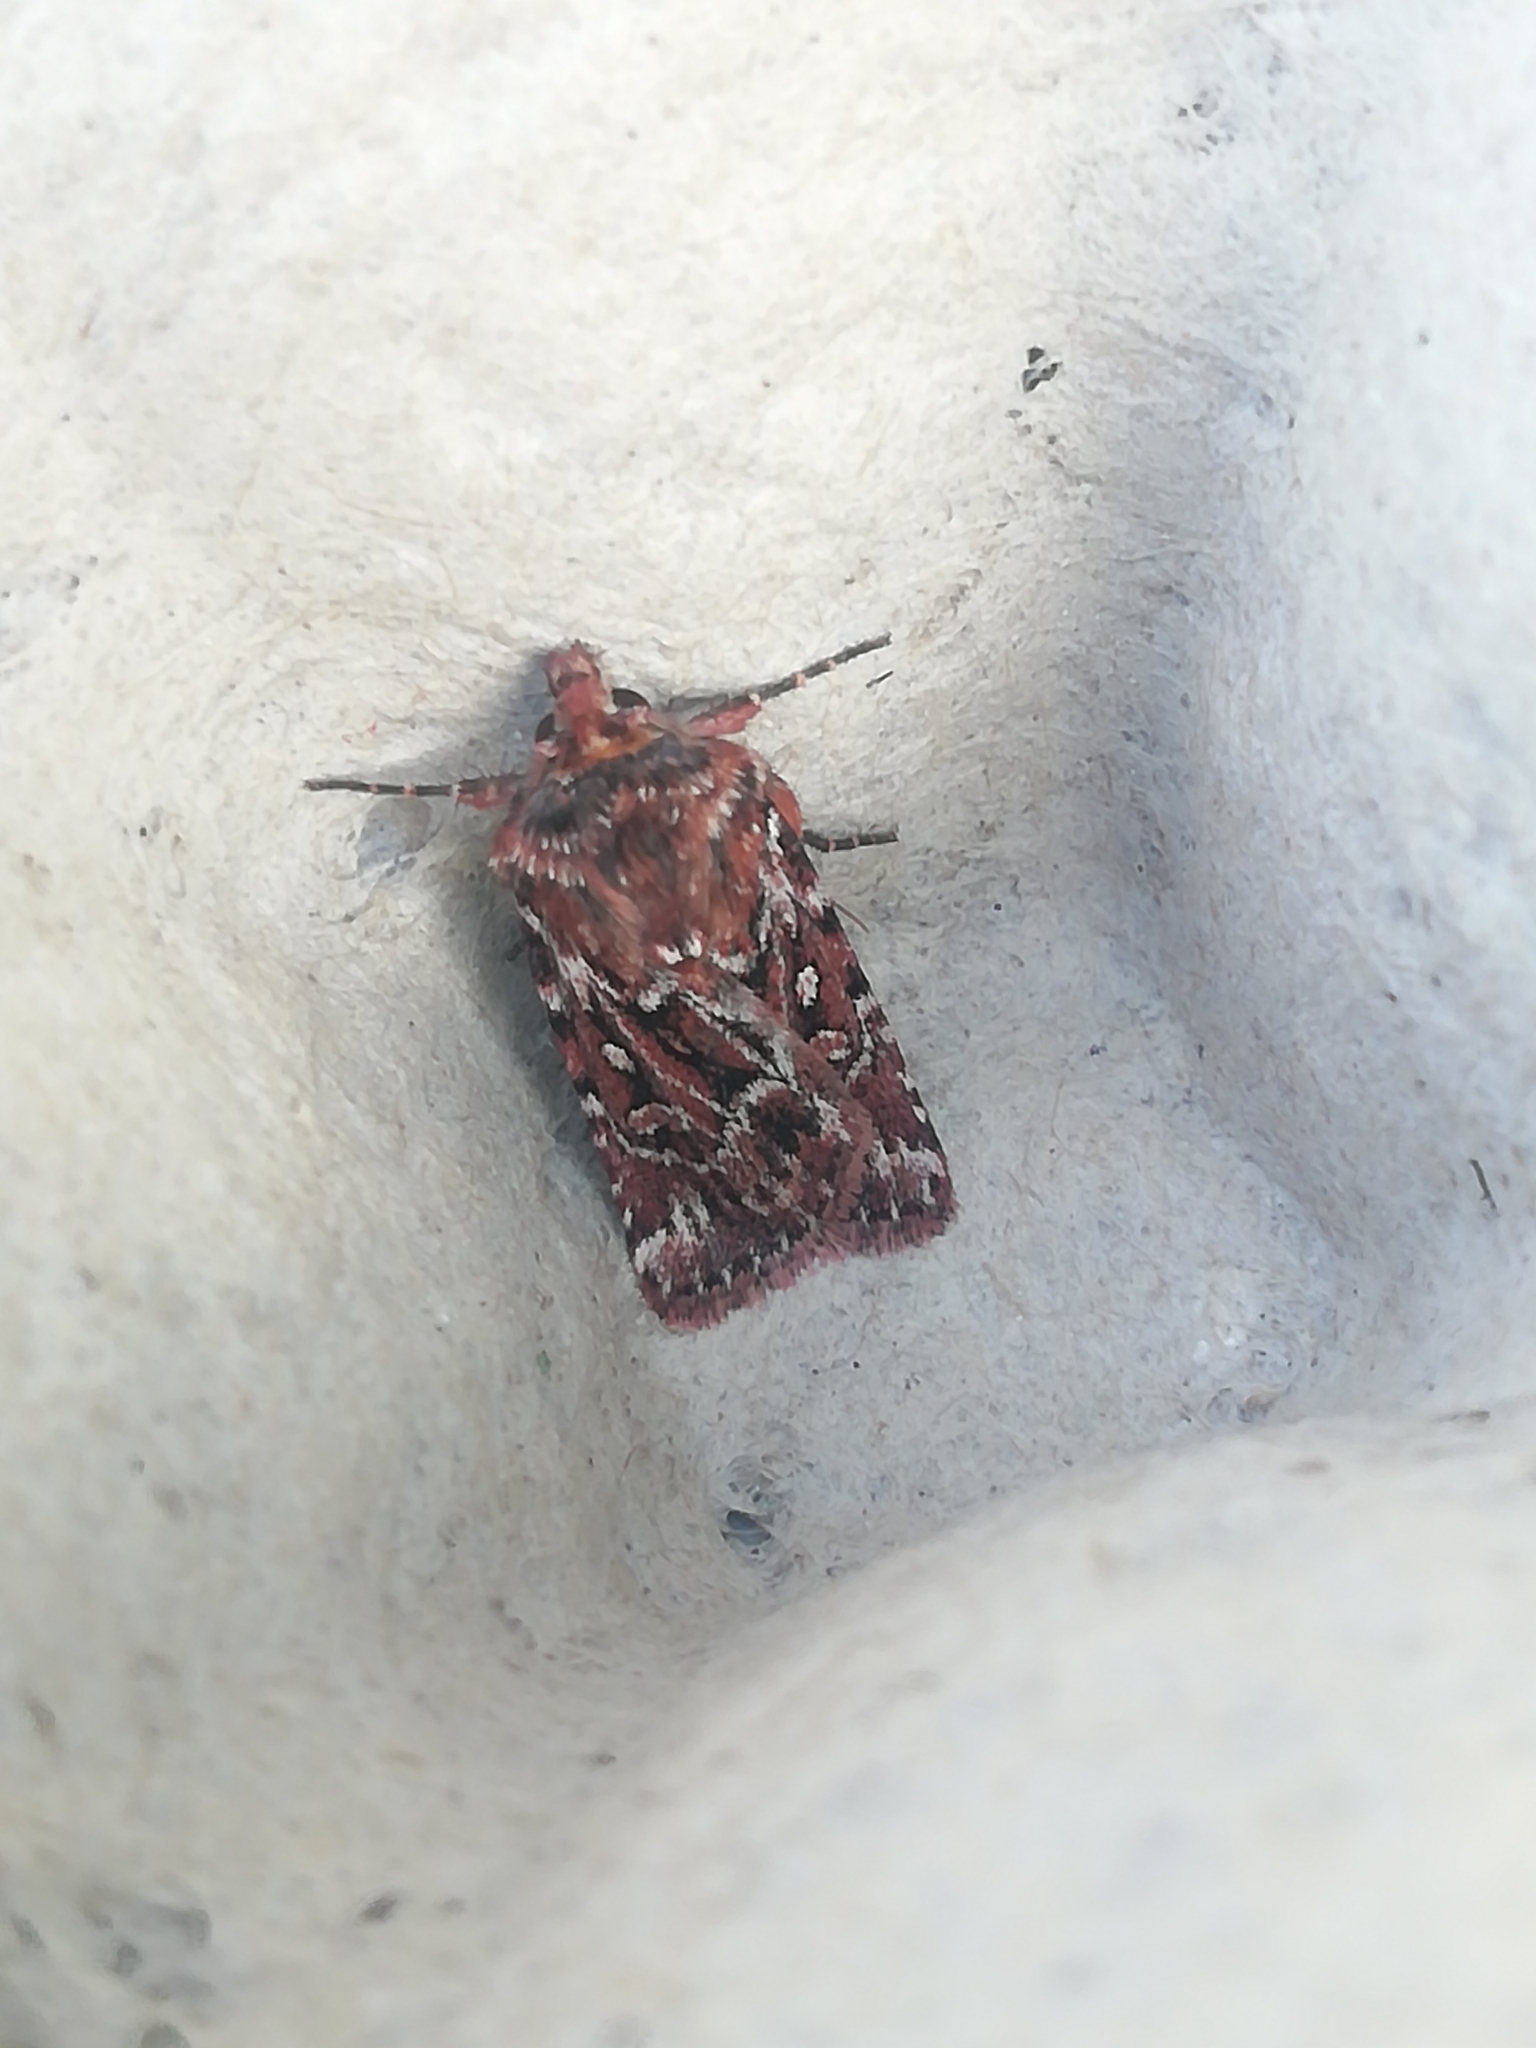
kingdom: Animalia
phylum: Arthropoda
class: Insecta
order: Lepidoptera
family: Noctuidae
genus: Lycophotia
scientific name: Lycophotia porphyrea
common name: True lover's knot
